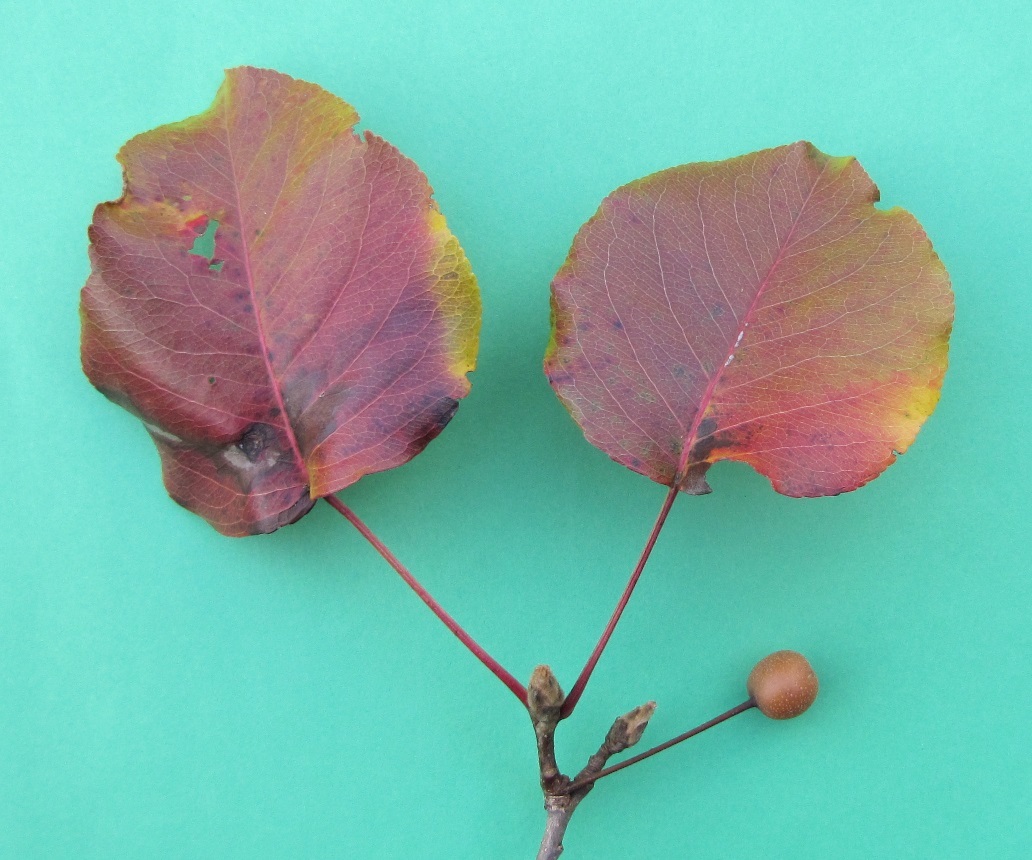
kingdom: Plantae
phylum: Tracheophyta
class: Magnoliopsida
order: Rosales
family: Rosaceae
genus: Pyrus
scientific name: Pyrus calleryana
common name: Callery pear
